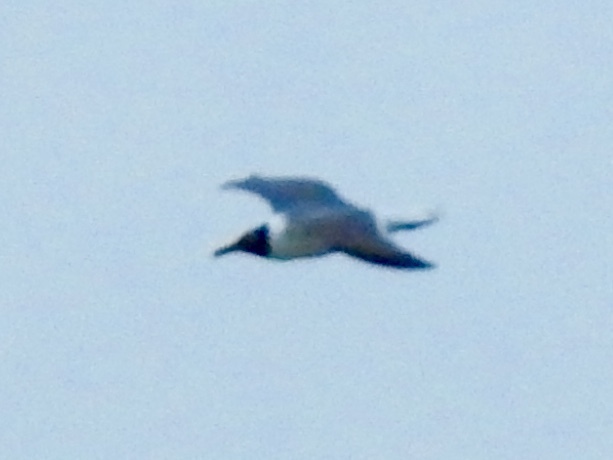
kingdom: Animalia
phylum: Chordata
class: Aves
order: Charadriiformes
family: Laridae
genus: Leucophaeus
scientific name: Leucophaeus atricilla
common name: Laughing gull
